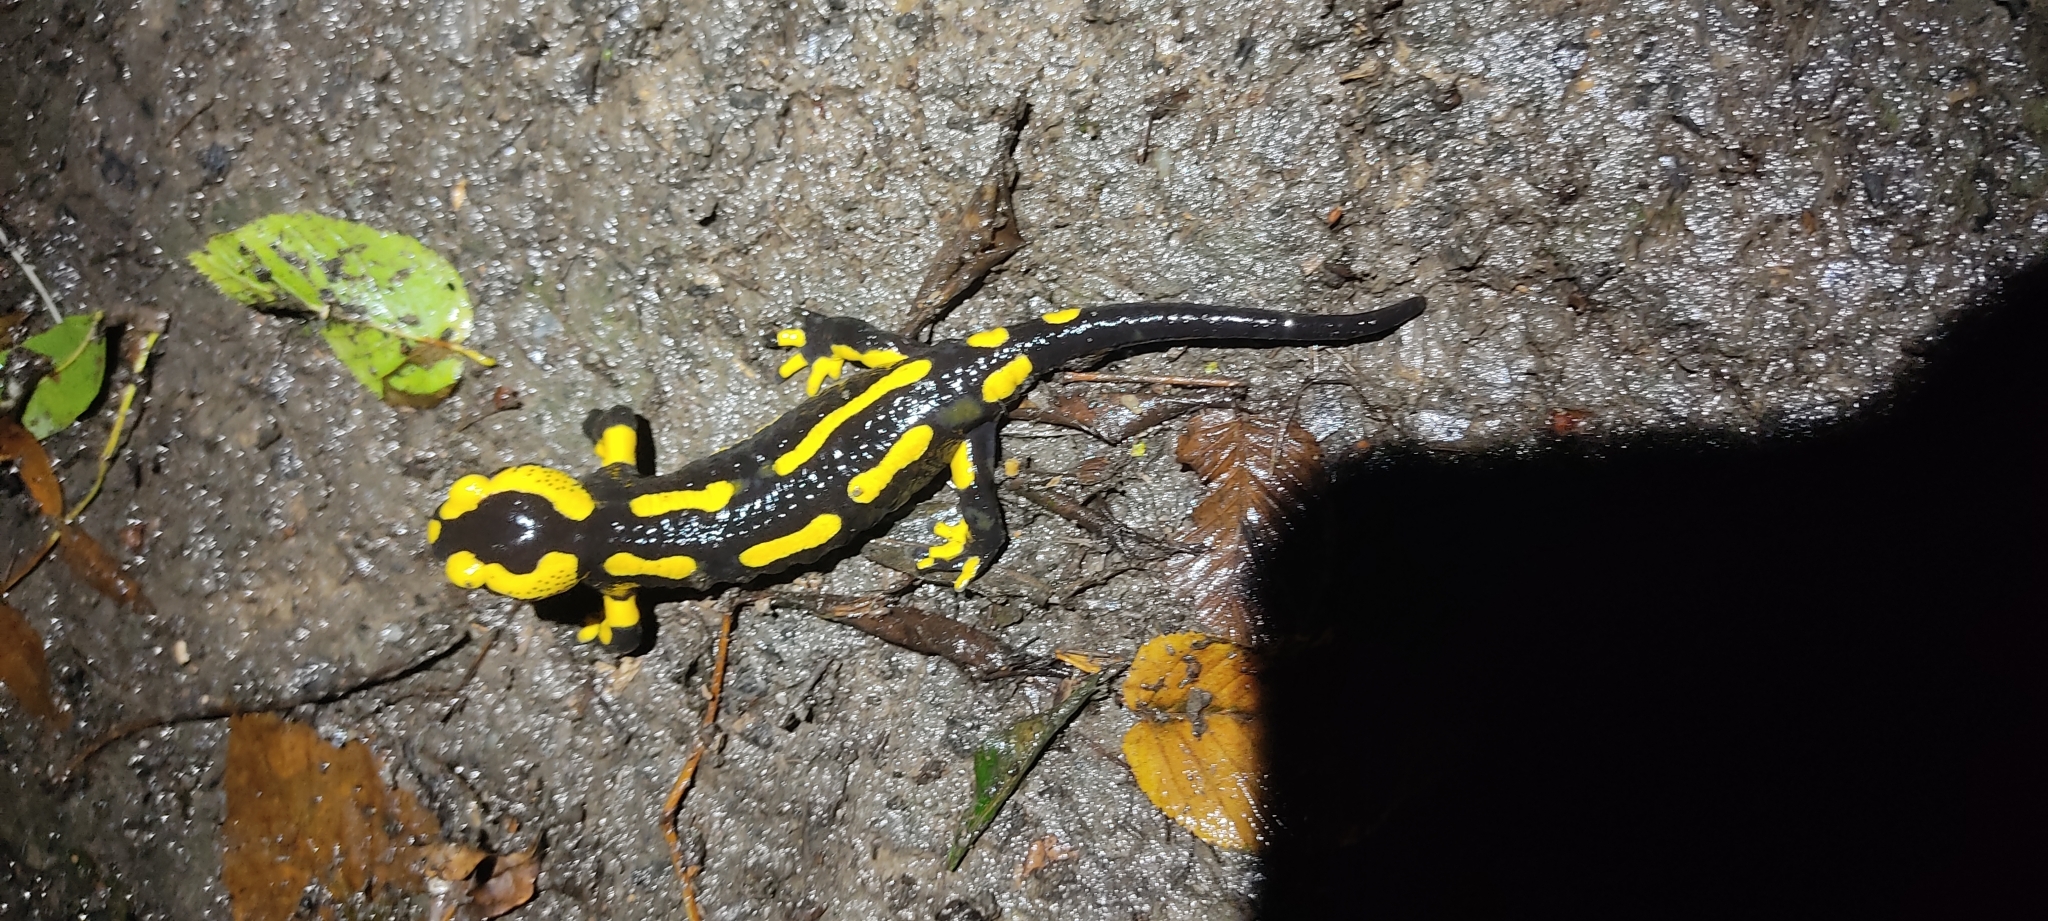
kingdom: Animalia
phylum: Chordata
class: Amphibia
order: Caudata
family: Salamandridae
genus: Salamandra
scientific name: Salamandra salamandra
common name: Fire salamander
